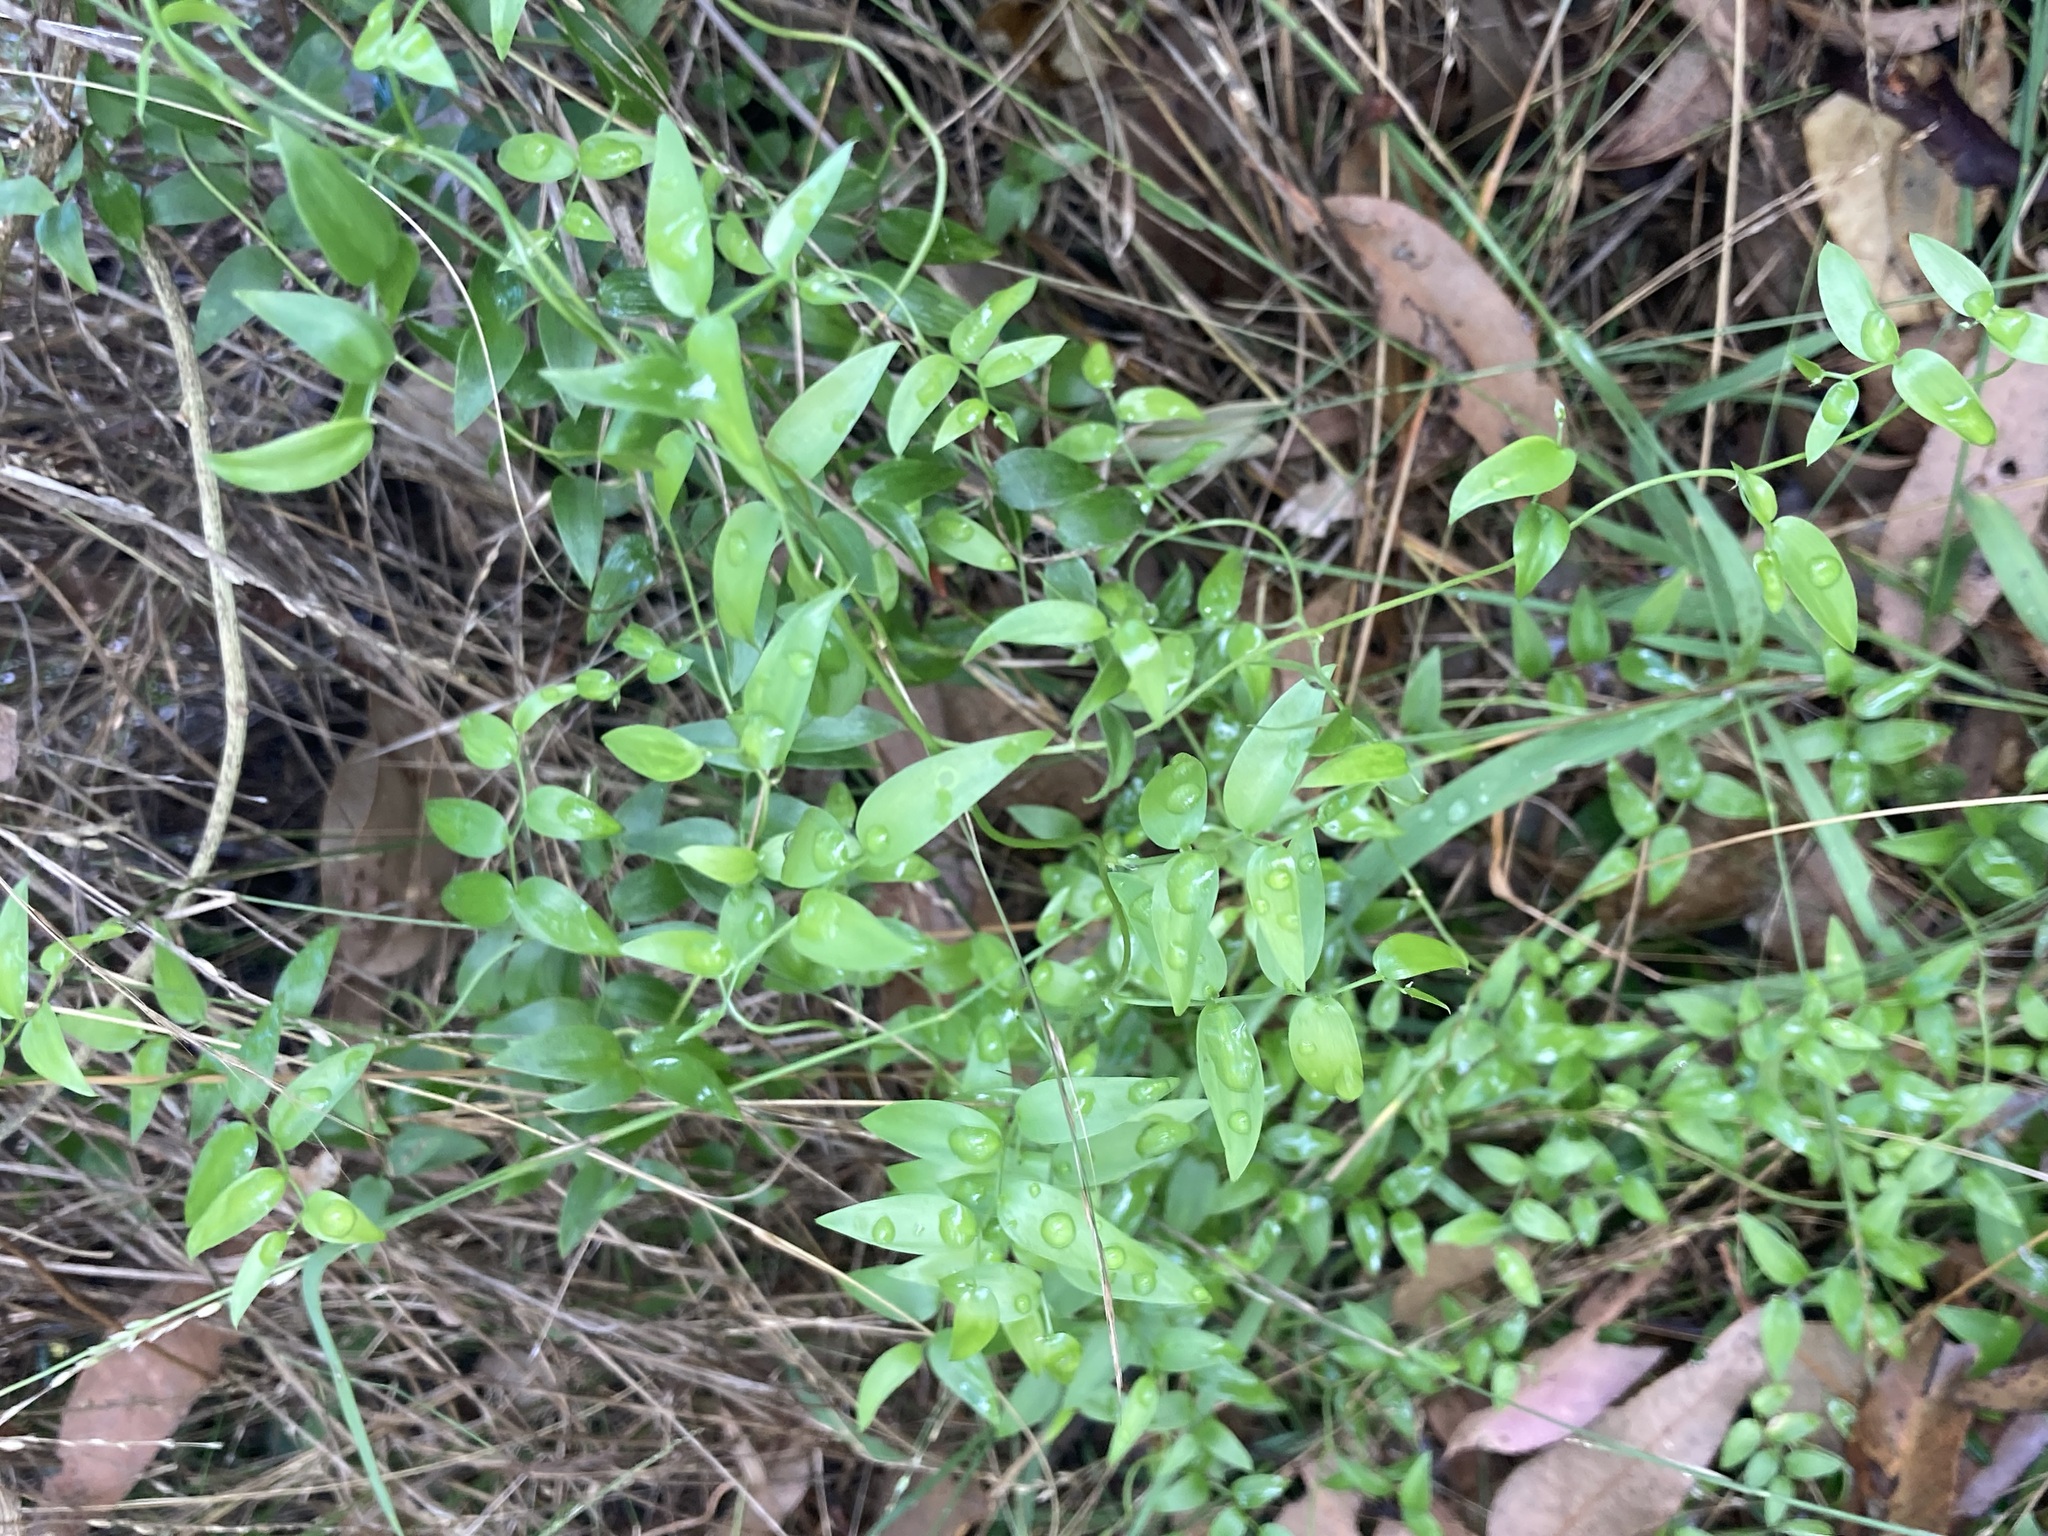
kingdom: Plantae
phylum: Tracheophyta
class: Liliopsida
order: Asparagales
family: Asparagaceae
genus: Asparagus
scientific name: Asparagus asparagoides
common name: African asparagus fern
